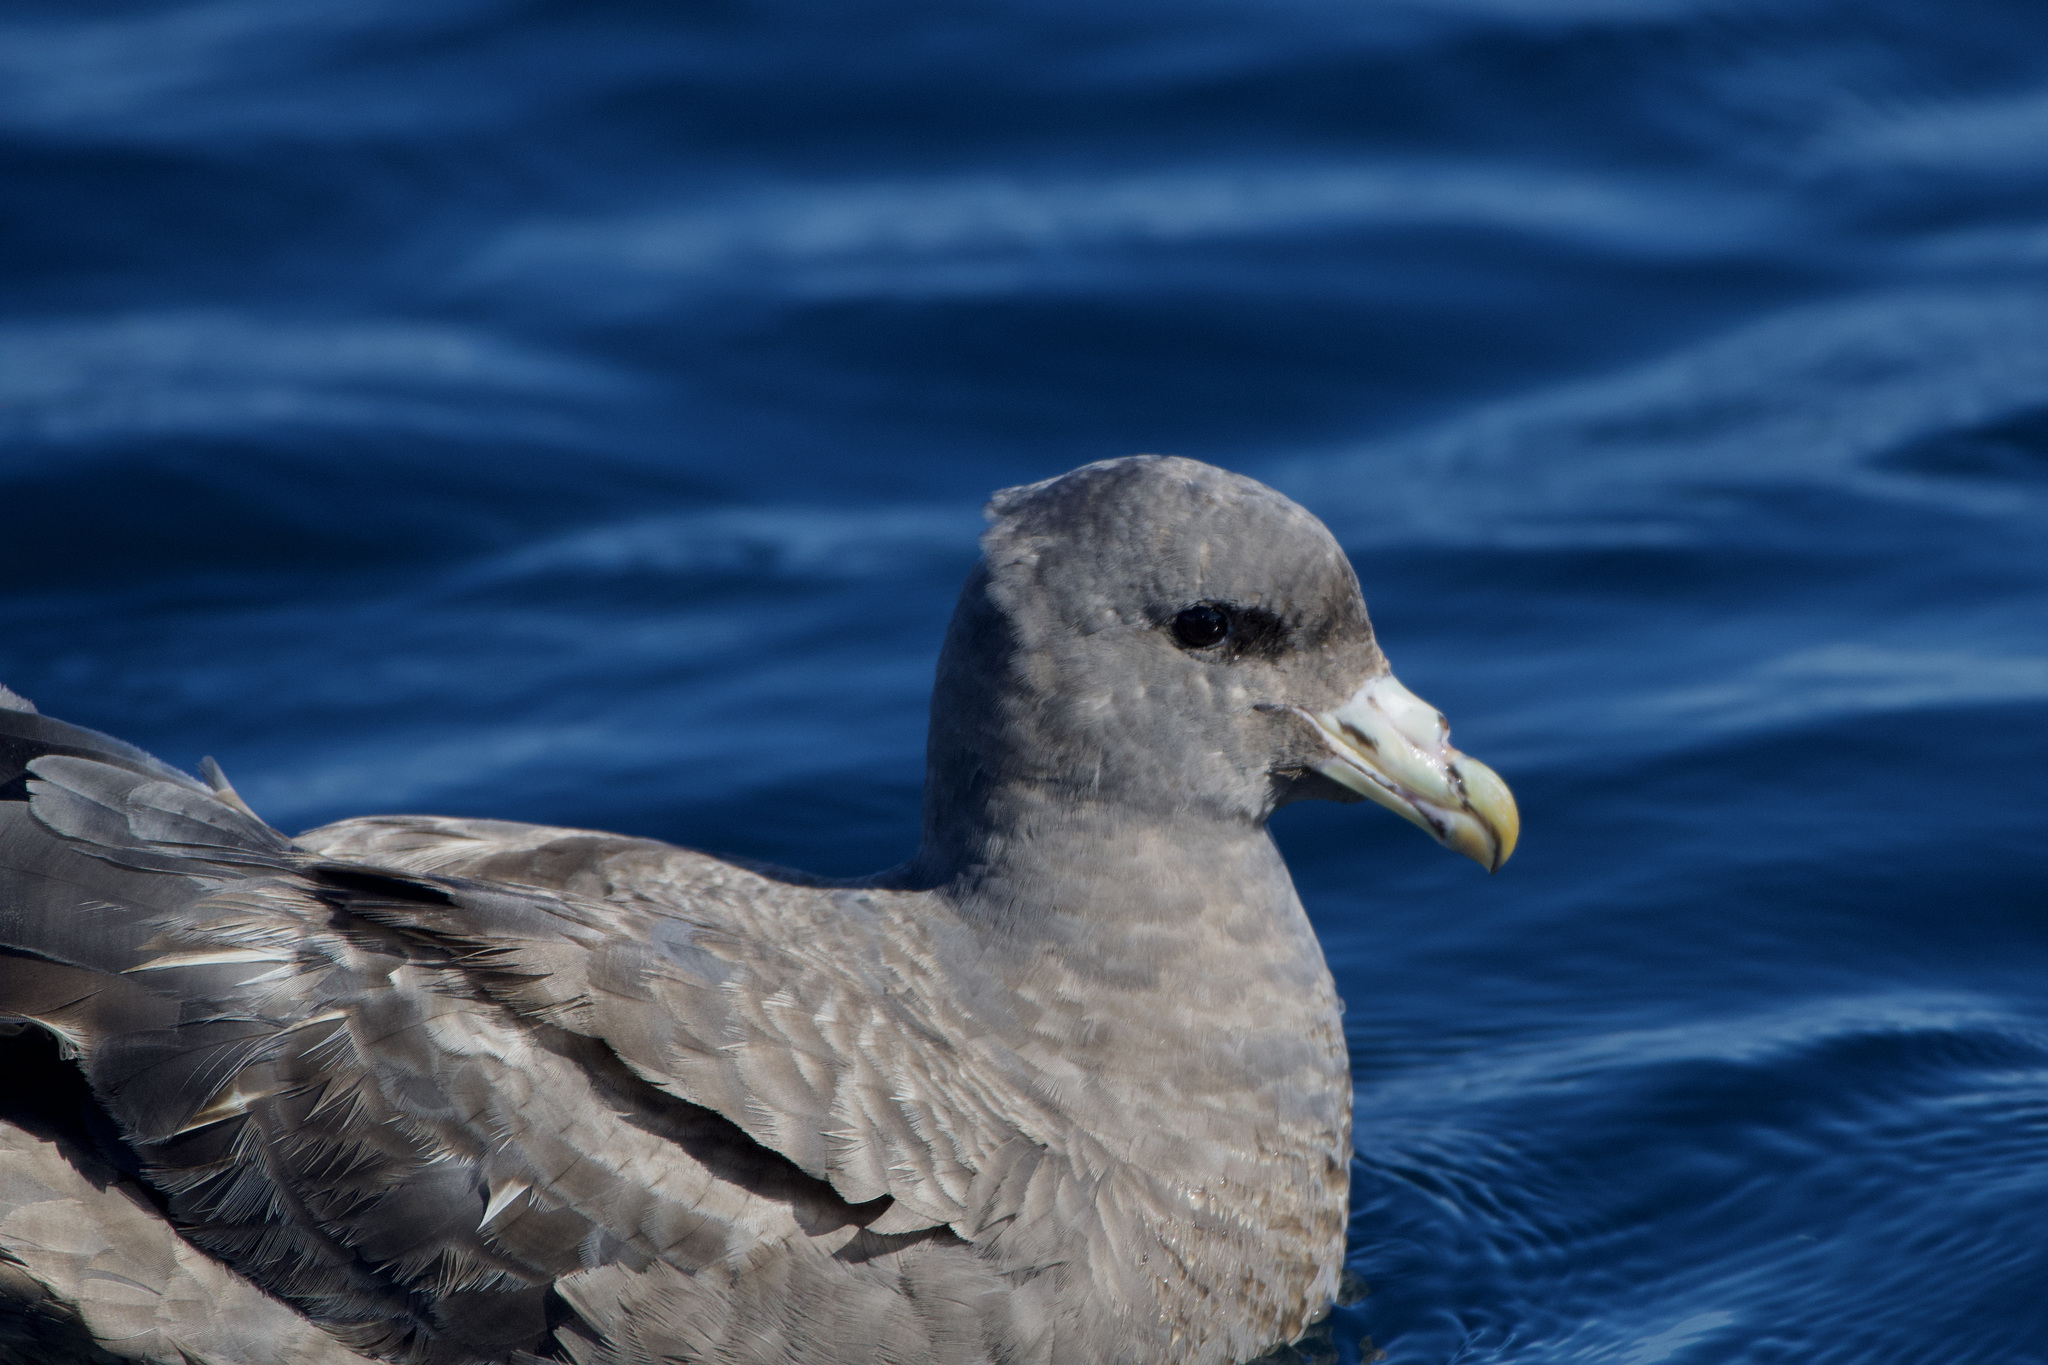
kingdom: Animalia
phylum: Chordata
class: Aves
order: Procellariiformes
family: Procellariidae
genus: Fulmarus
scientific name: Fulmarus glacialis
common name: Northern fulmar
